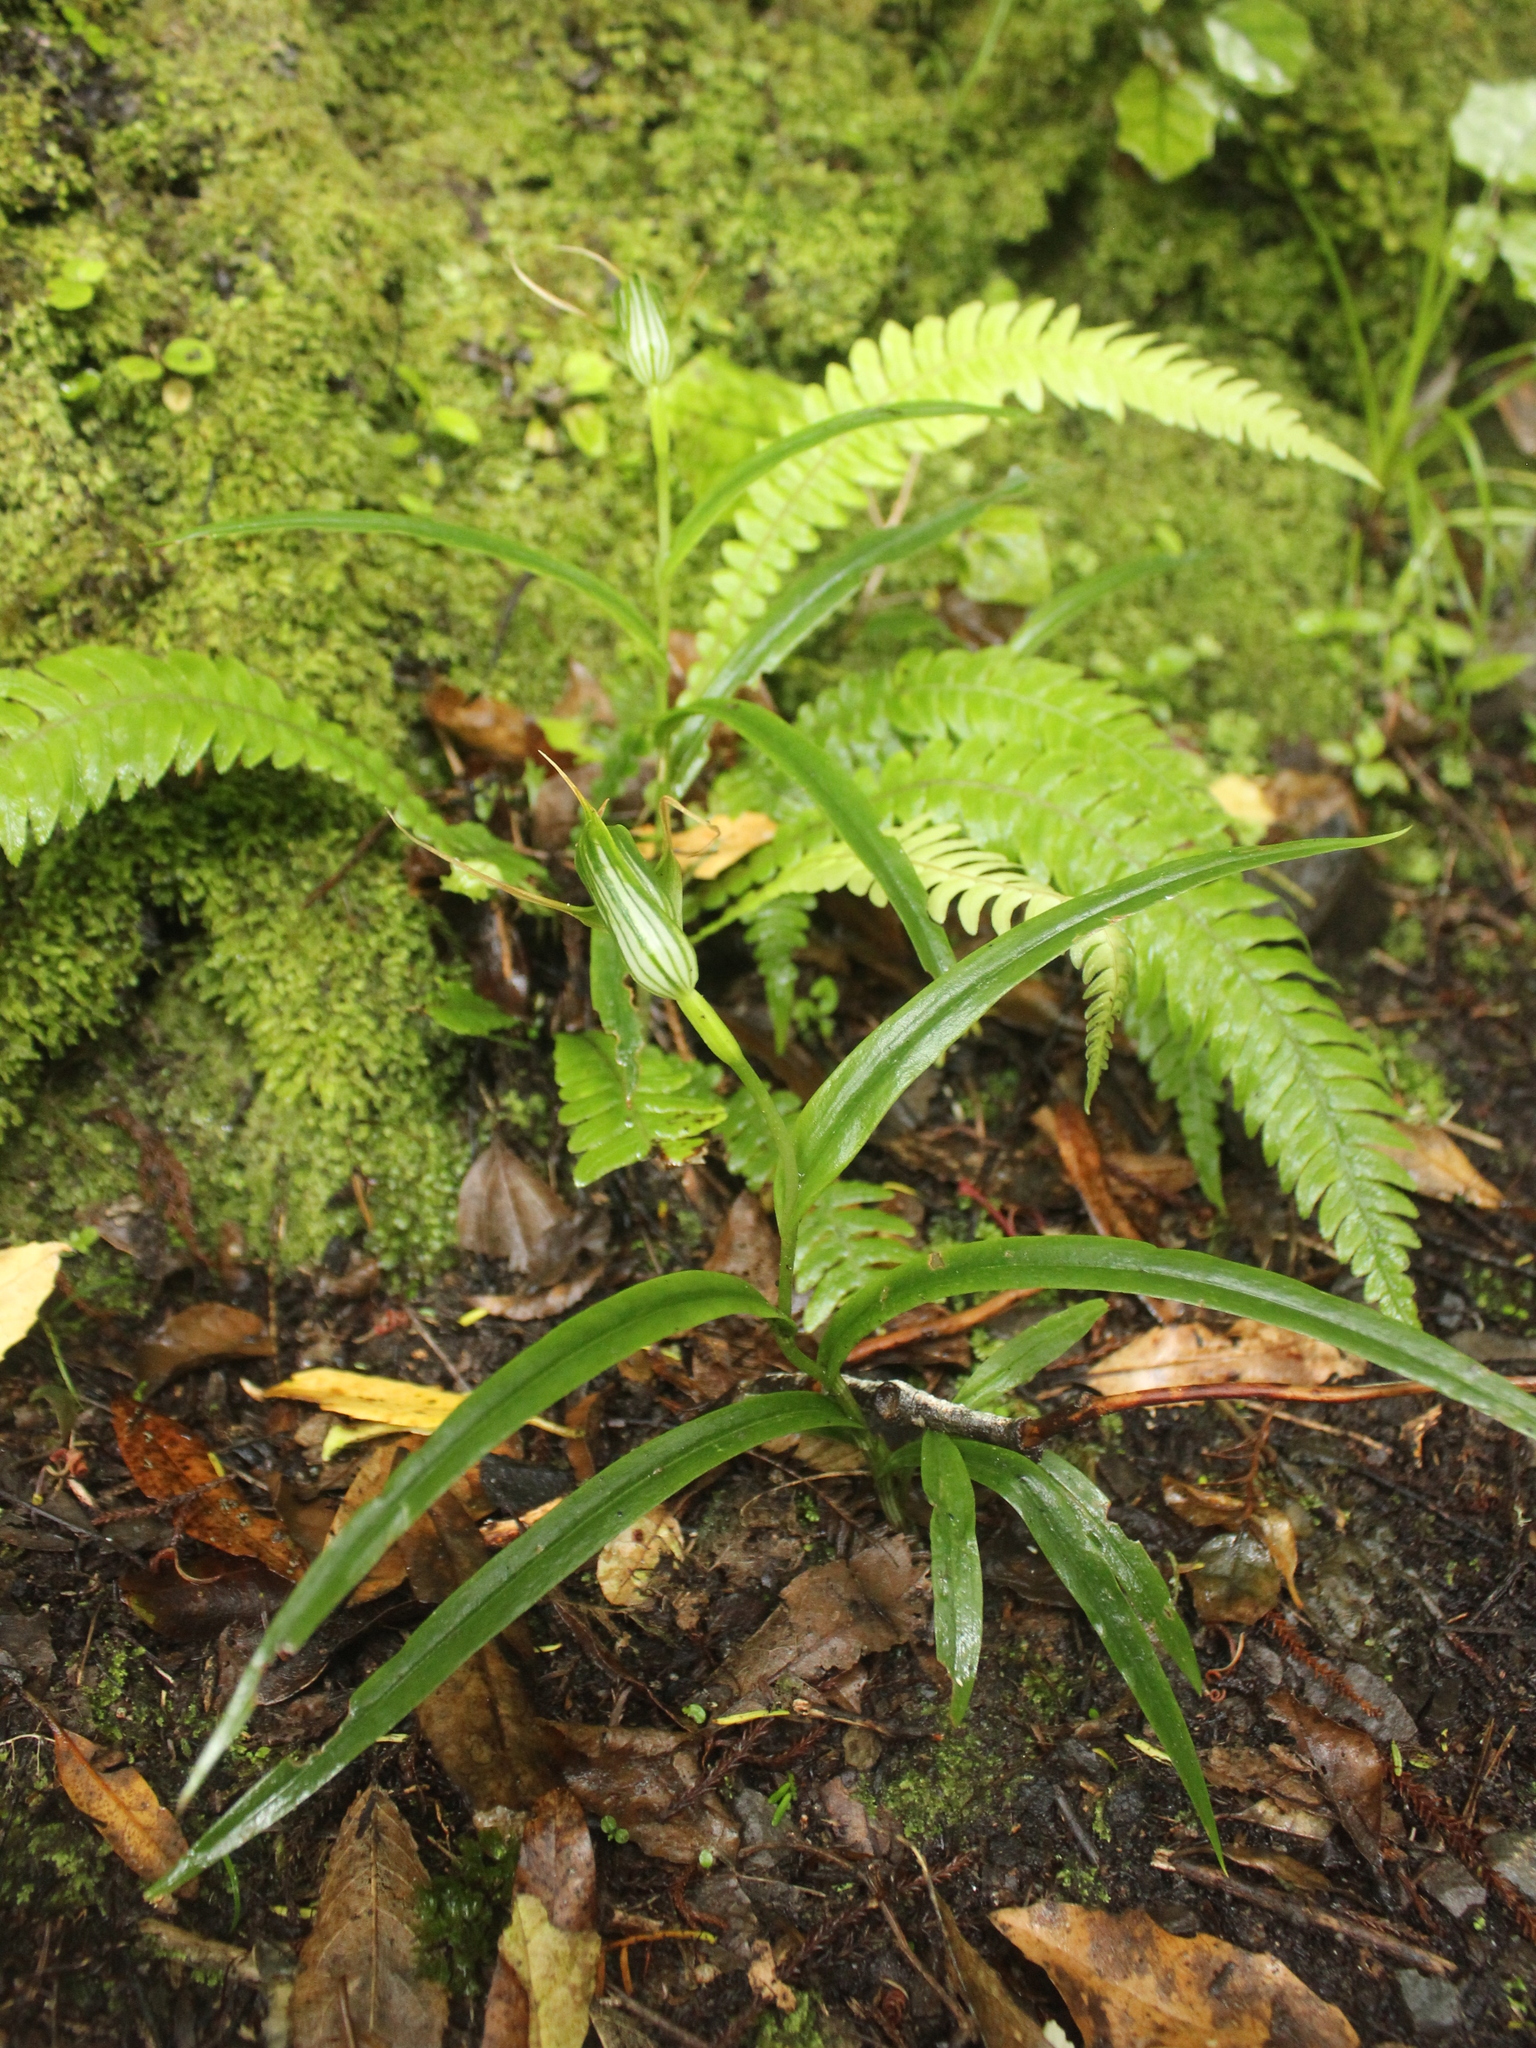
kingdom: Plantae
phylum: Tracheophyta
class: Liliopsida
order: Asparagales
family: Orchidaceae
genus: Pterostylis
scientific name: Pterostylis banksii
